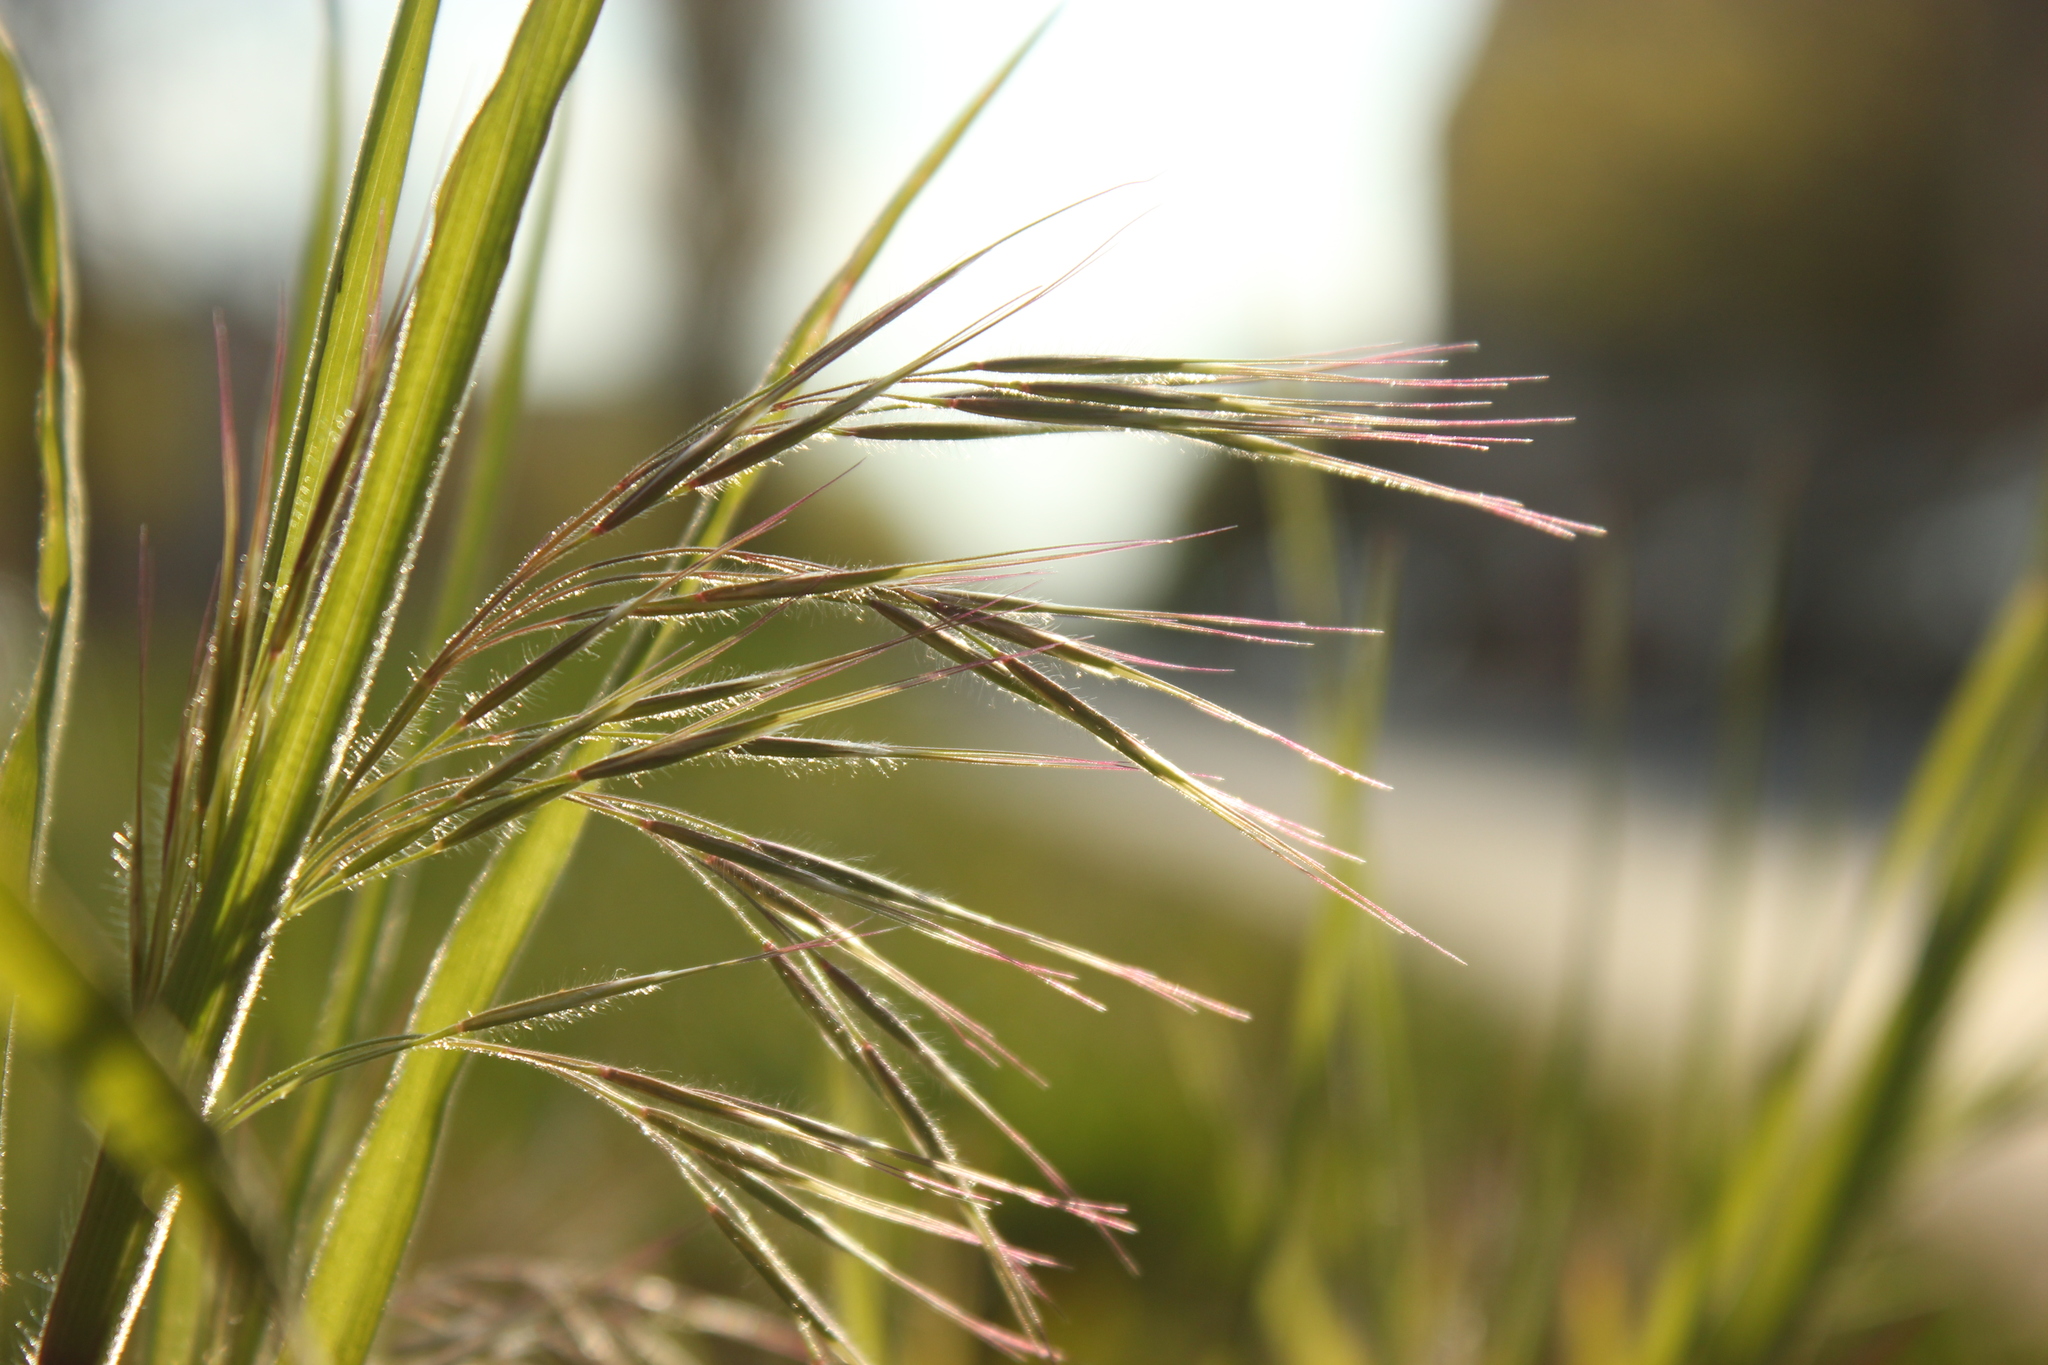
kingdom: Plantae
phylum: Tracheophyta
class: Liliopsida
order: Poales
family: Poaceae
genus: Bromus
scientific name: Bromus sterilis
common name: Poverty brome
